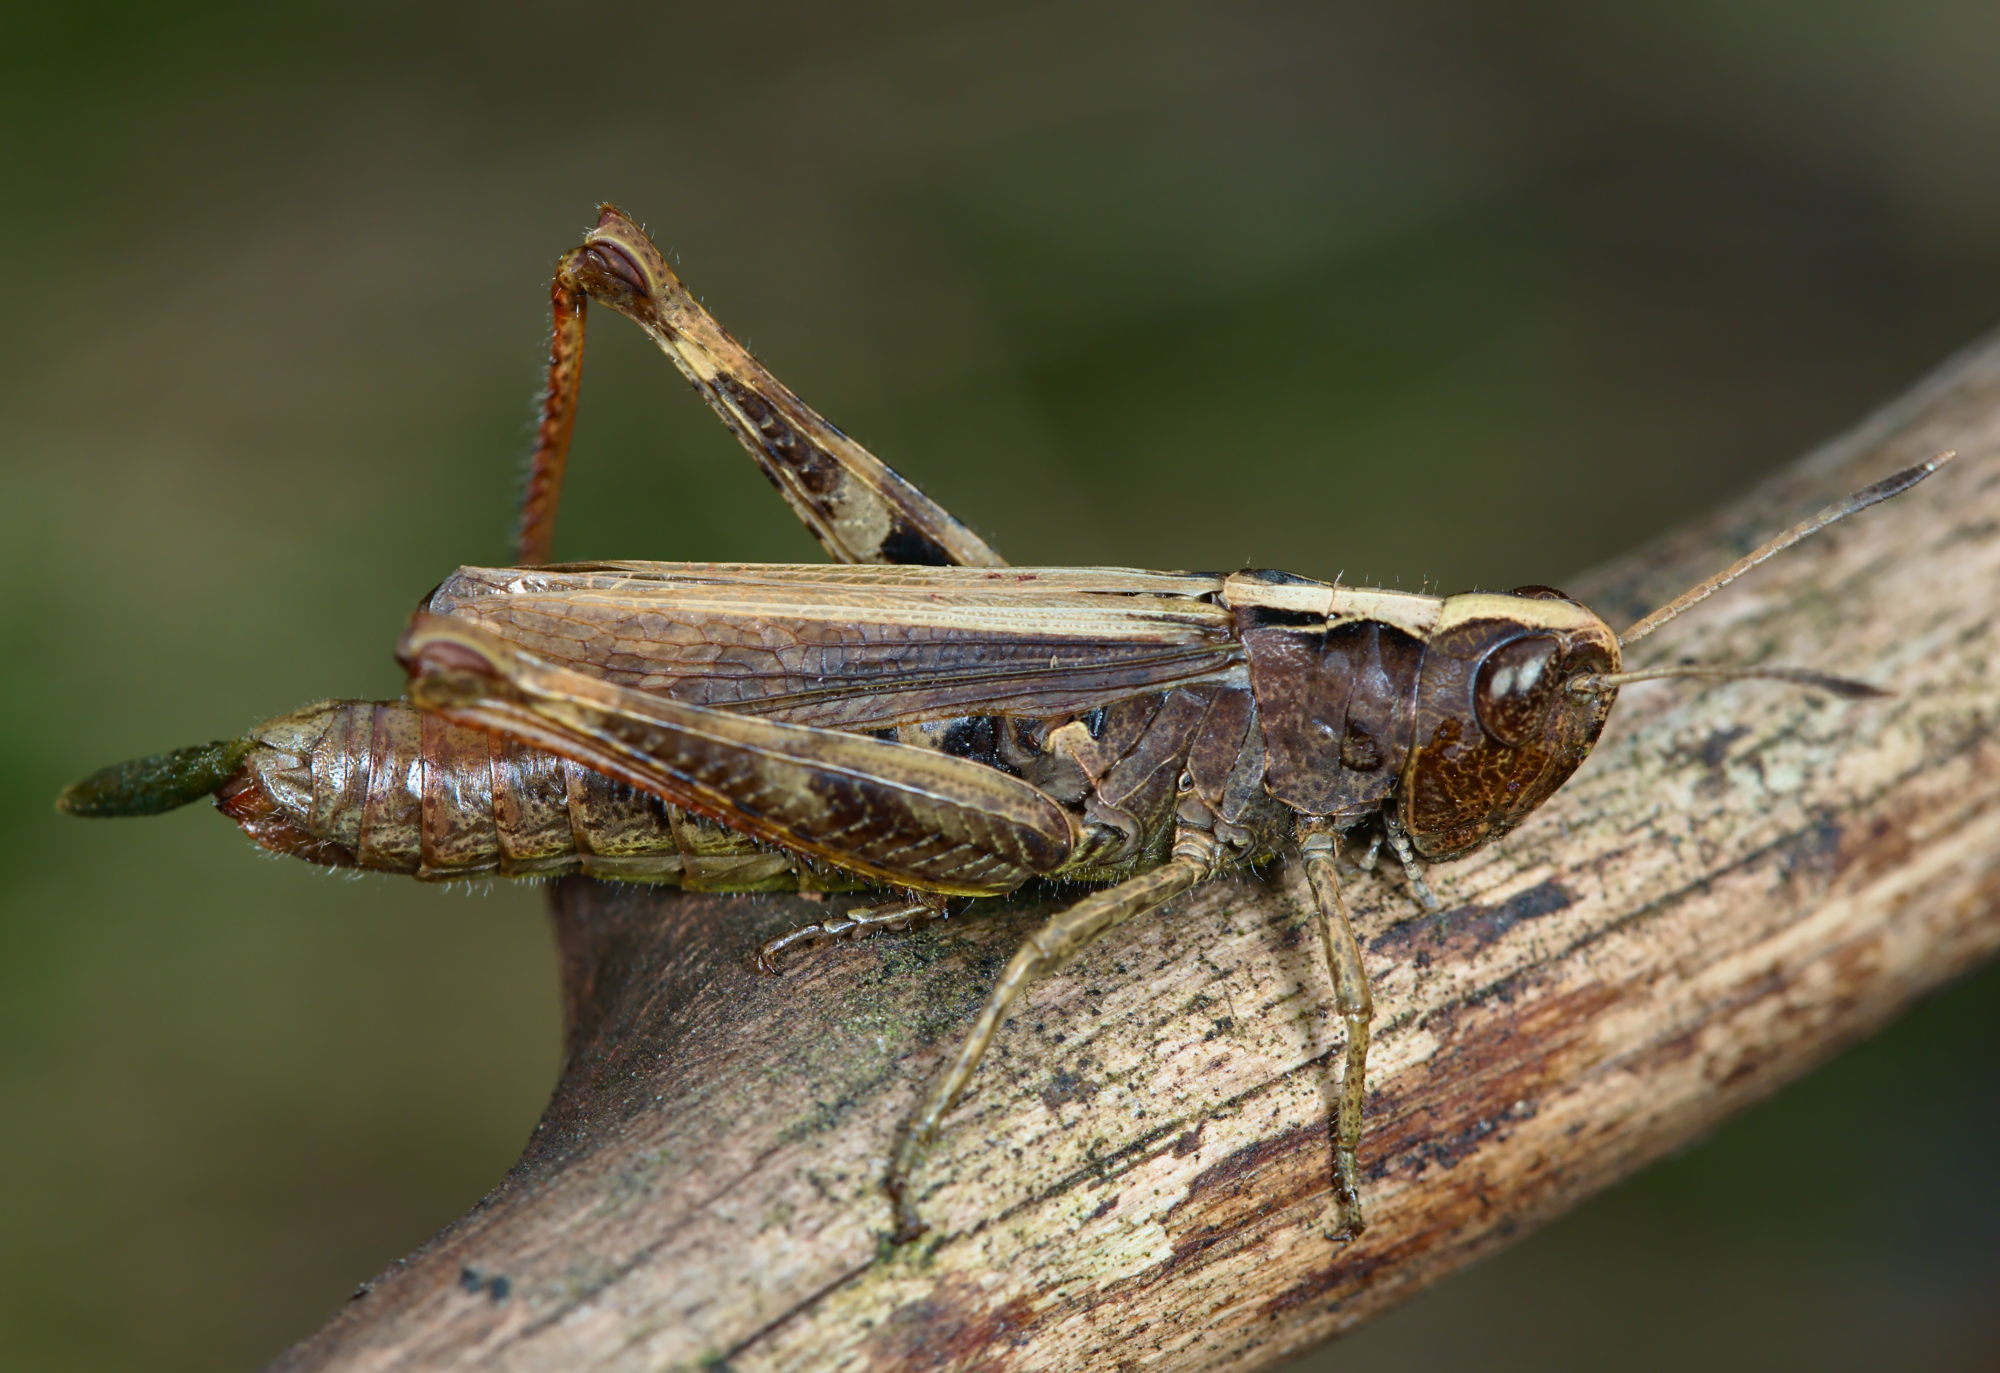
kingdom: Animalia
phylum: Arthropoda
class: Insecta
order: Orthoptera
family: Acrididae
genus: Gomphocerippus
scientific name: Gomphocerippus rufus
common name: Rufous grasshopper
